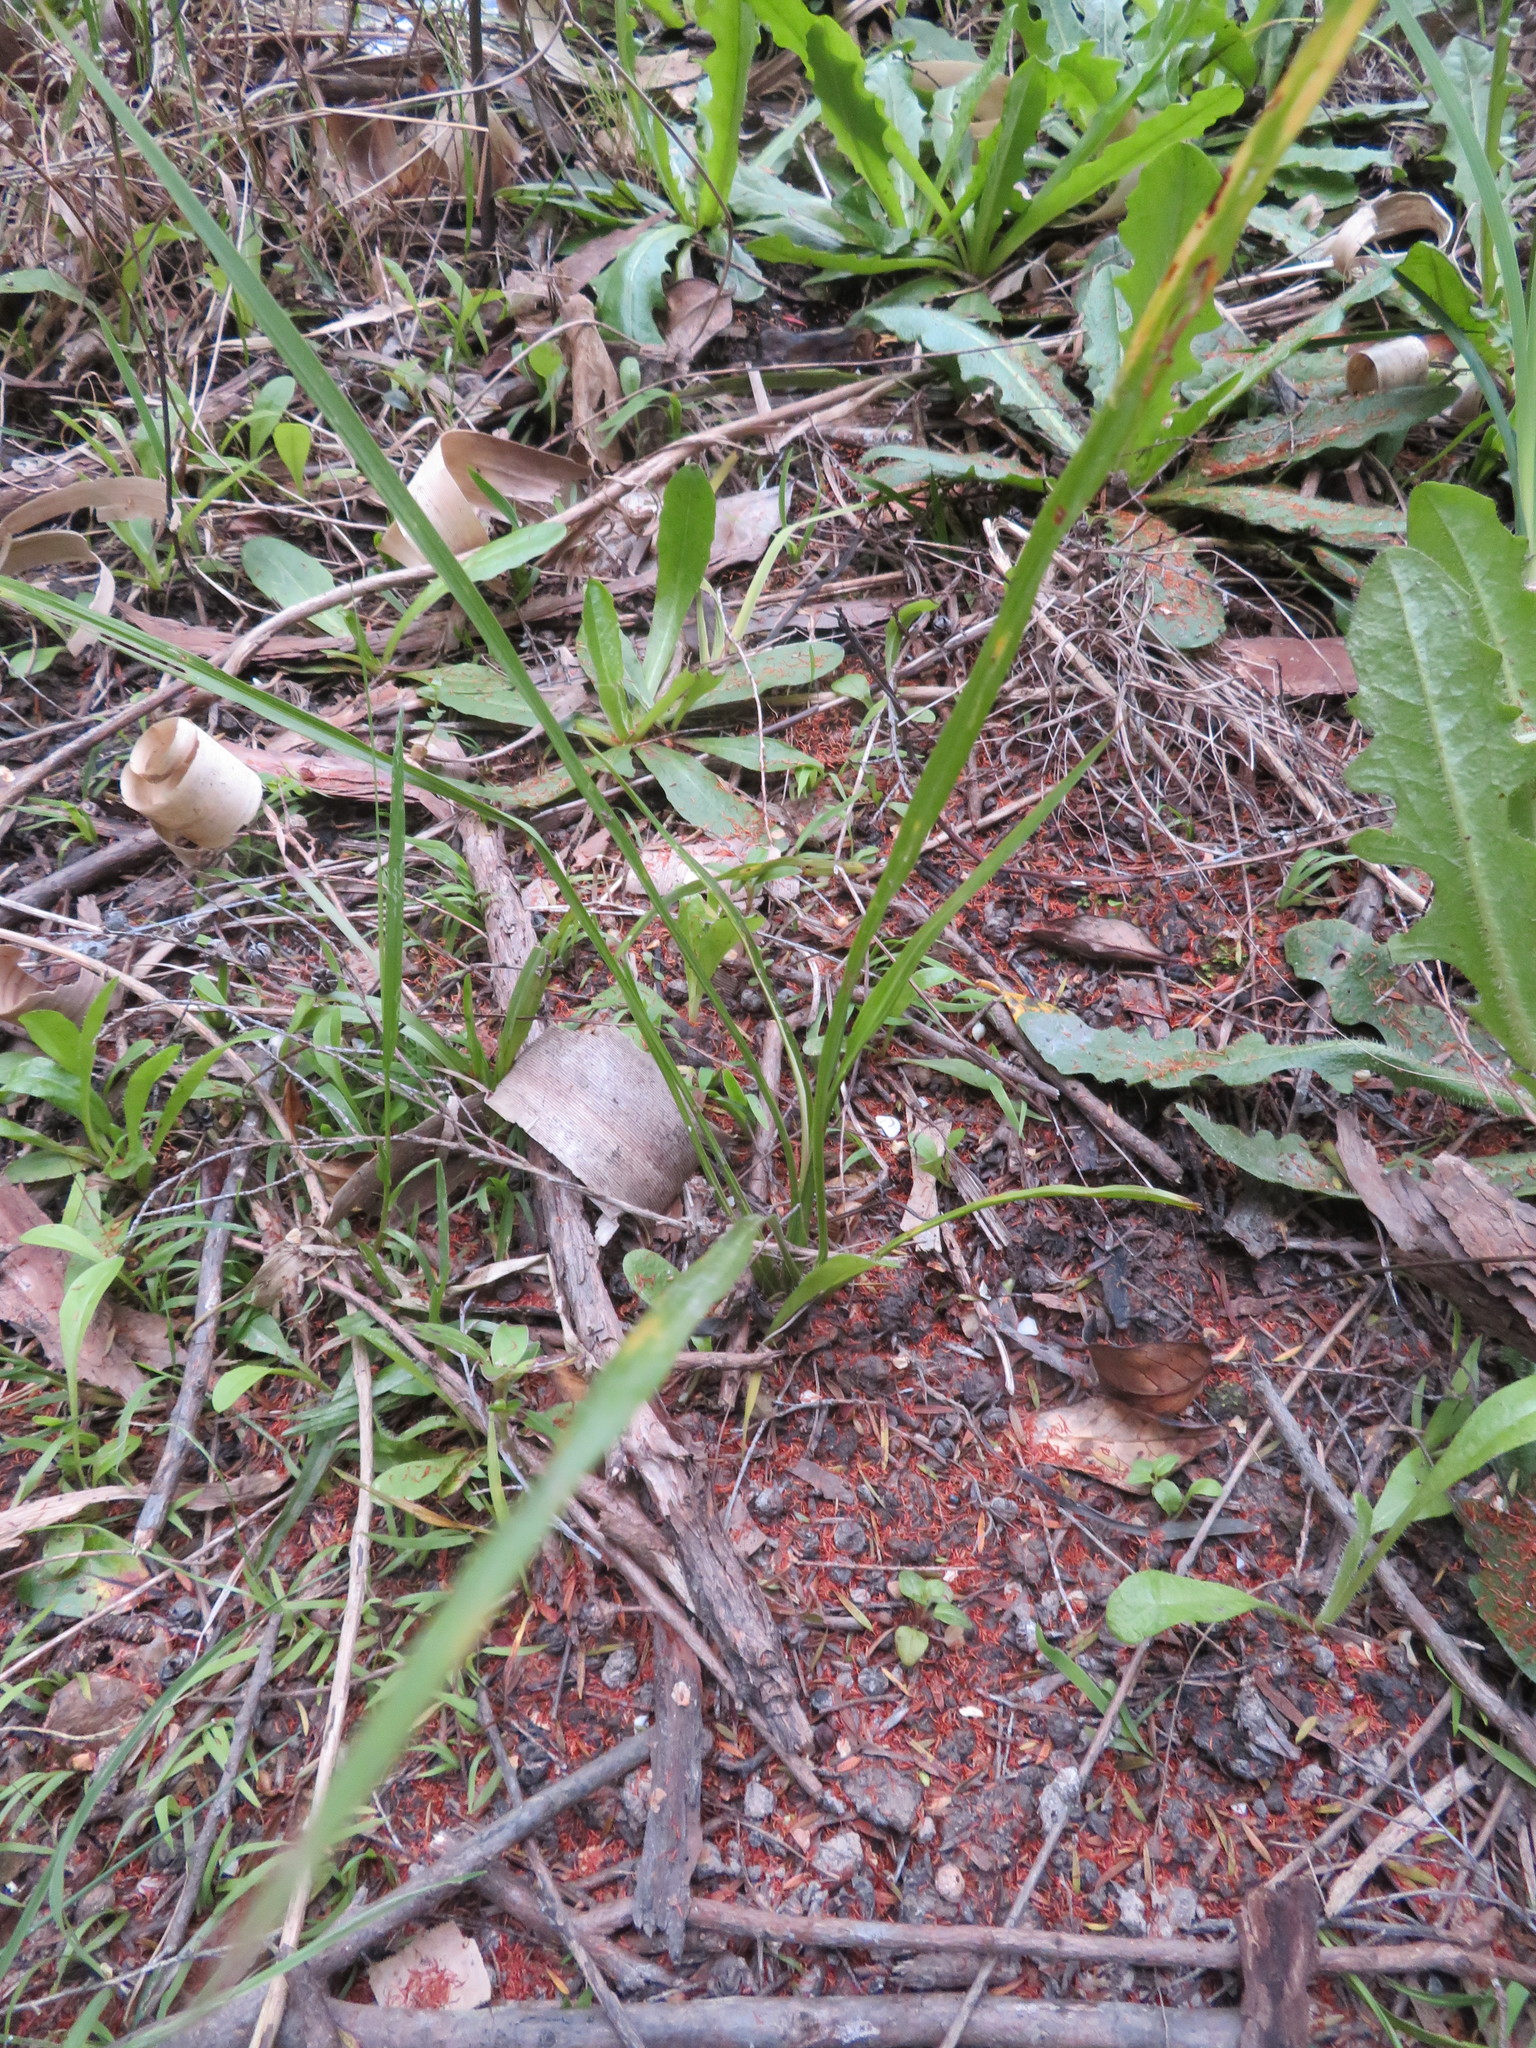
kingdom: Plantae
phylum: Tracheophyta
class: Liliopsida
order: Asparagales
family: Asparagaceae
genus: Cordyline
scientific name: Cordyline australis
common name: Cabbage-palm
